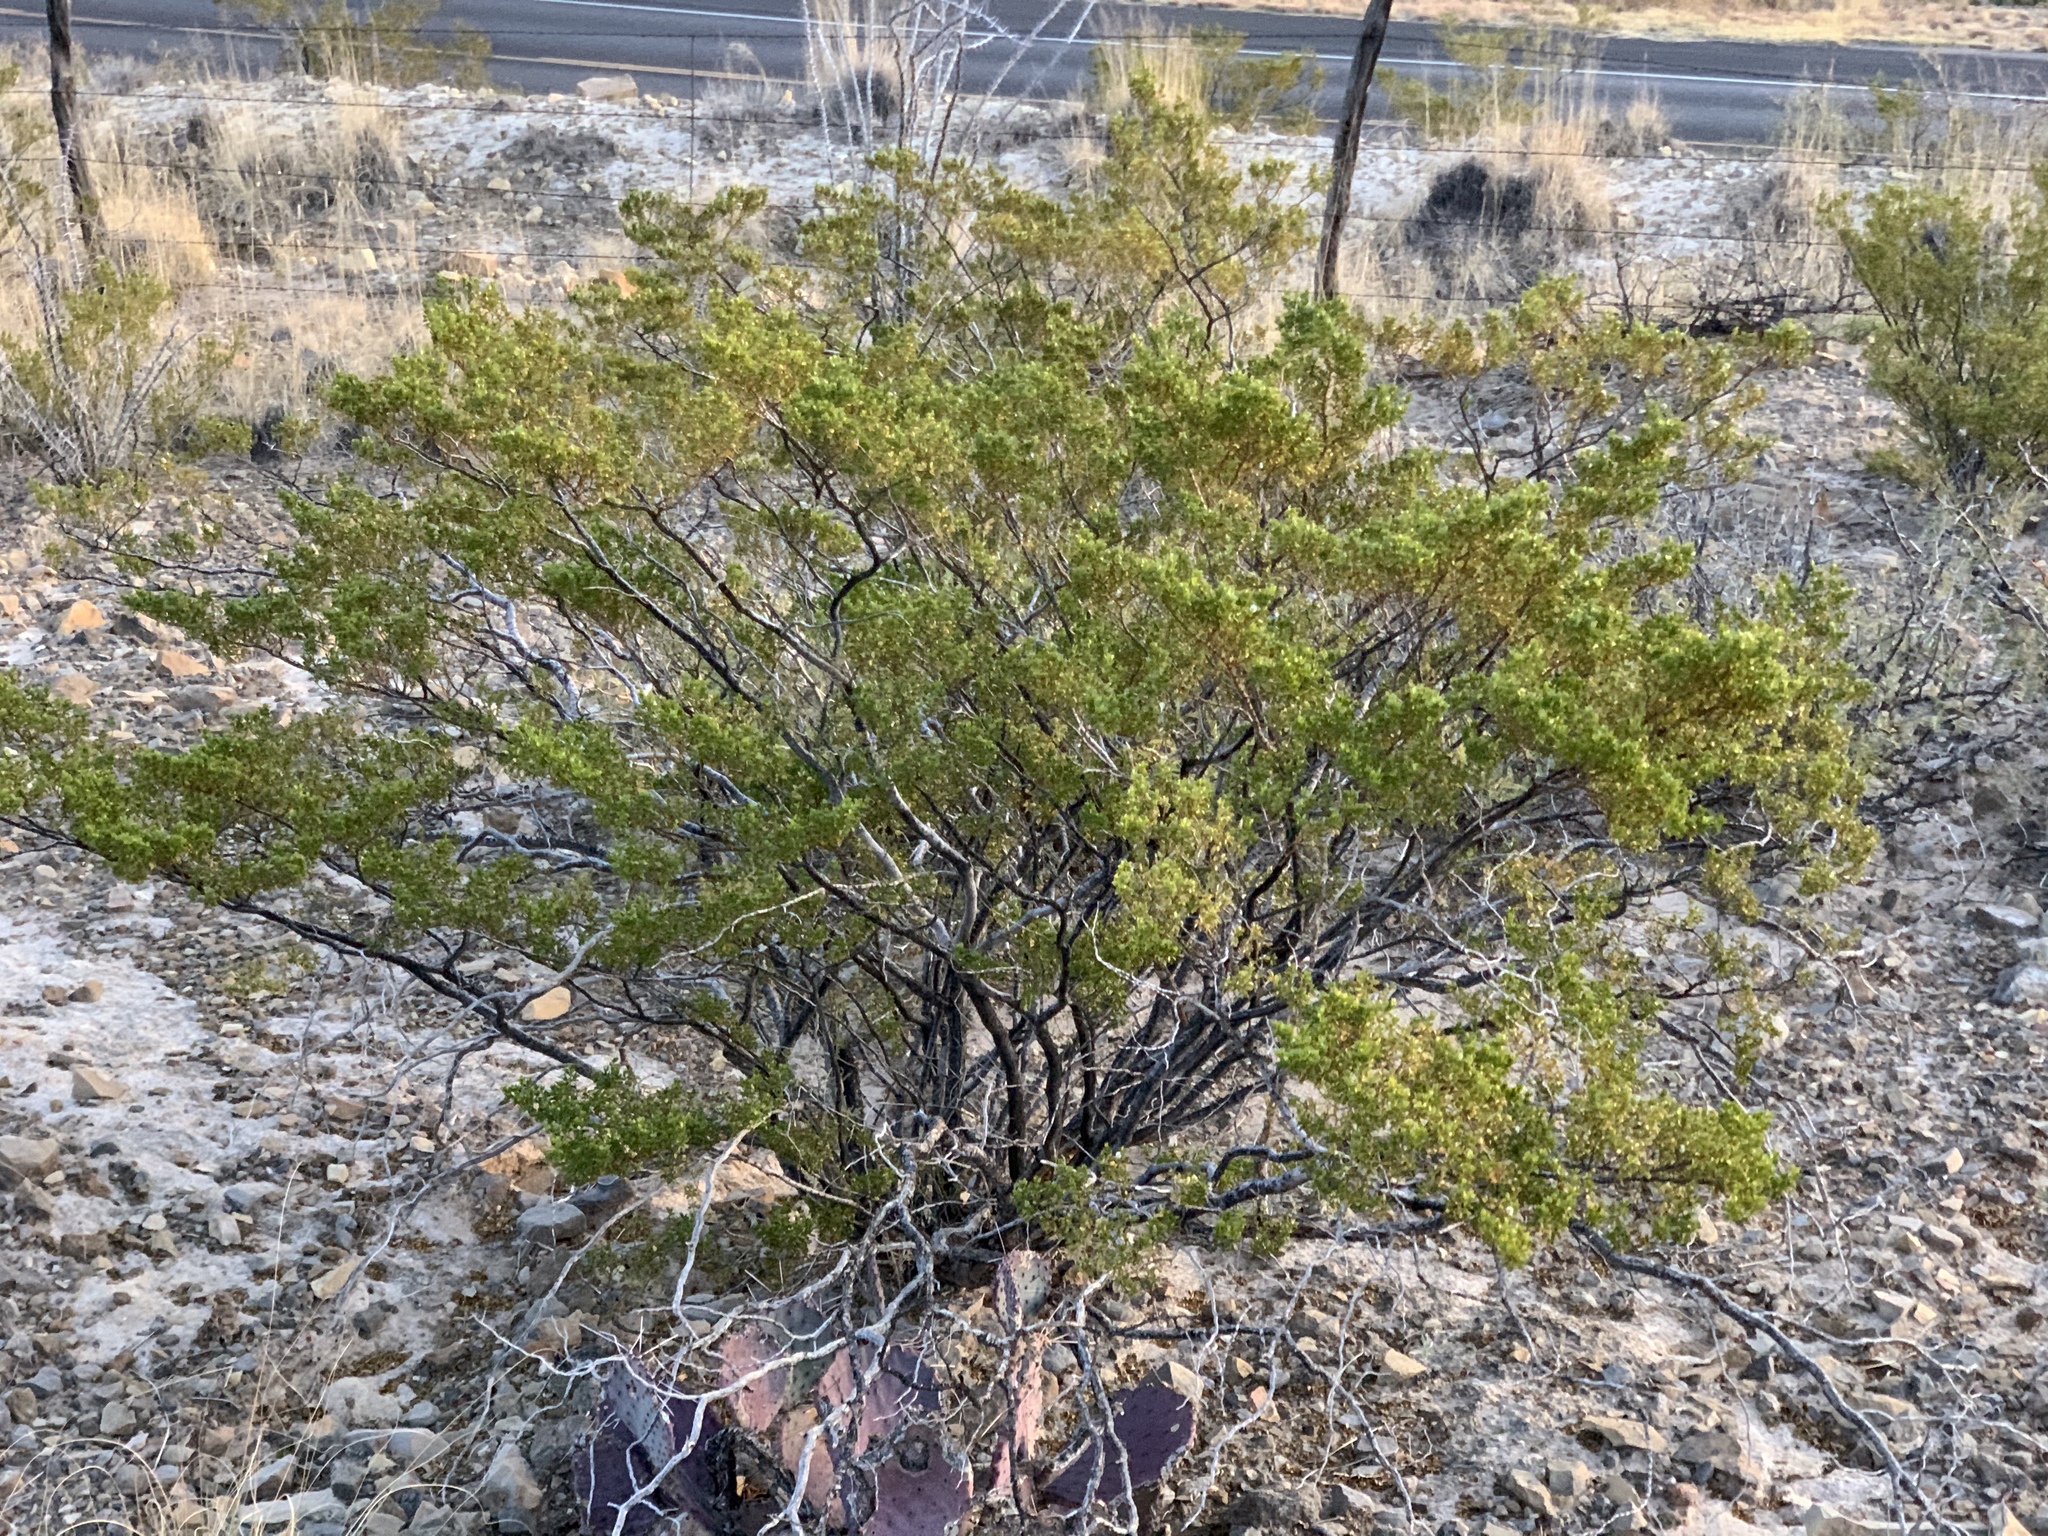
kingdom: Plantae
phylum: Tracheophyta
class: Magnoliopsida
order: Zygophyllales
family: Zygophyllaceae
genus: Larrea
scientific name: Larrea tridentata
